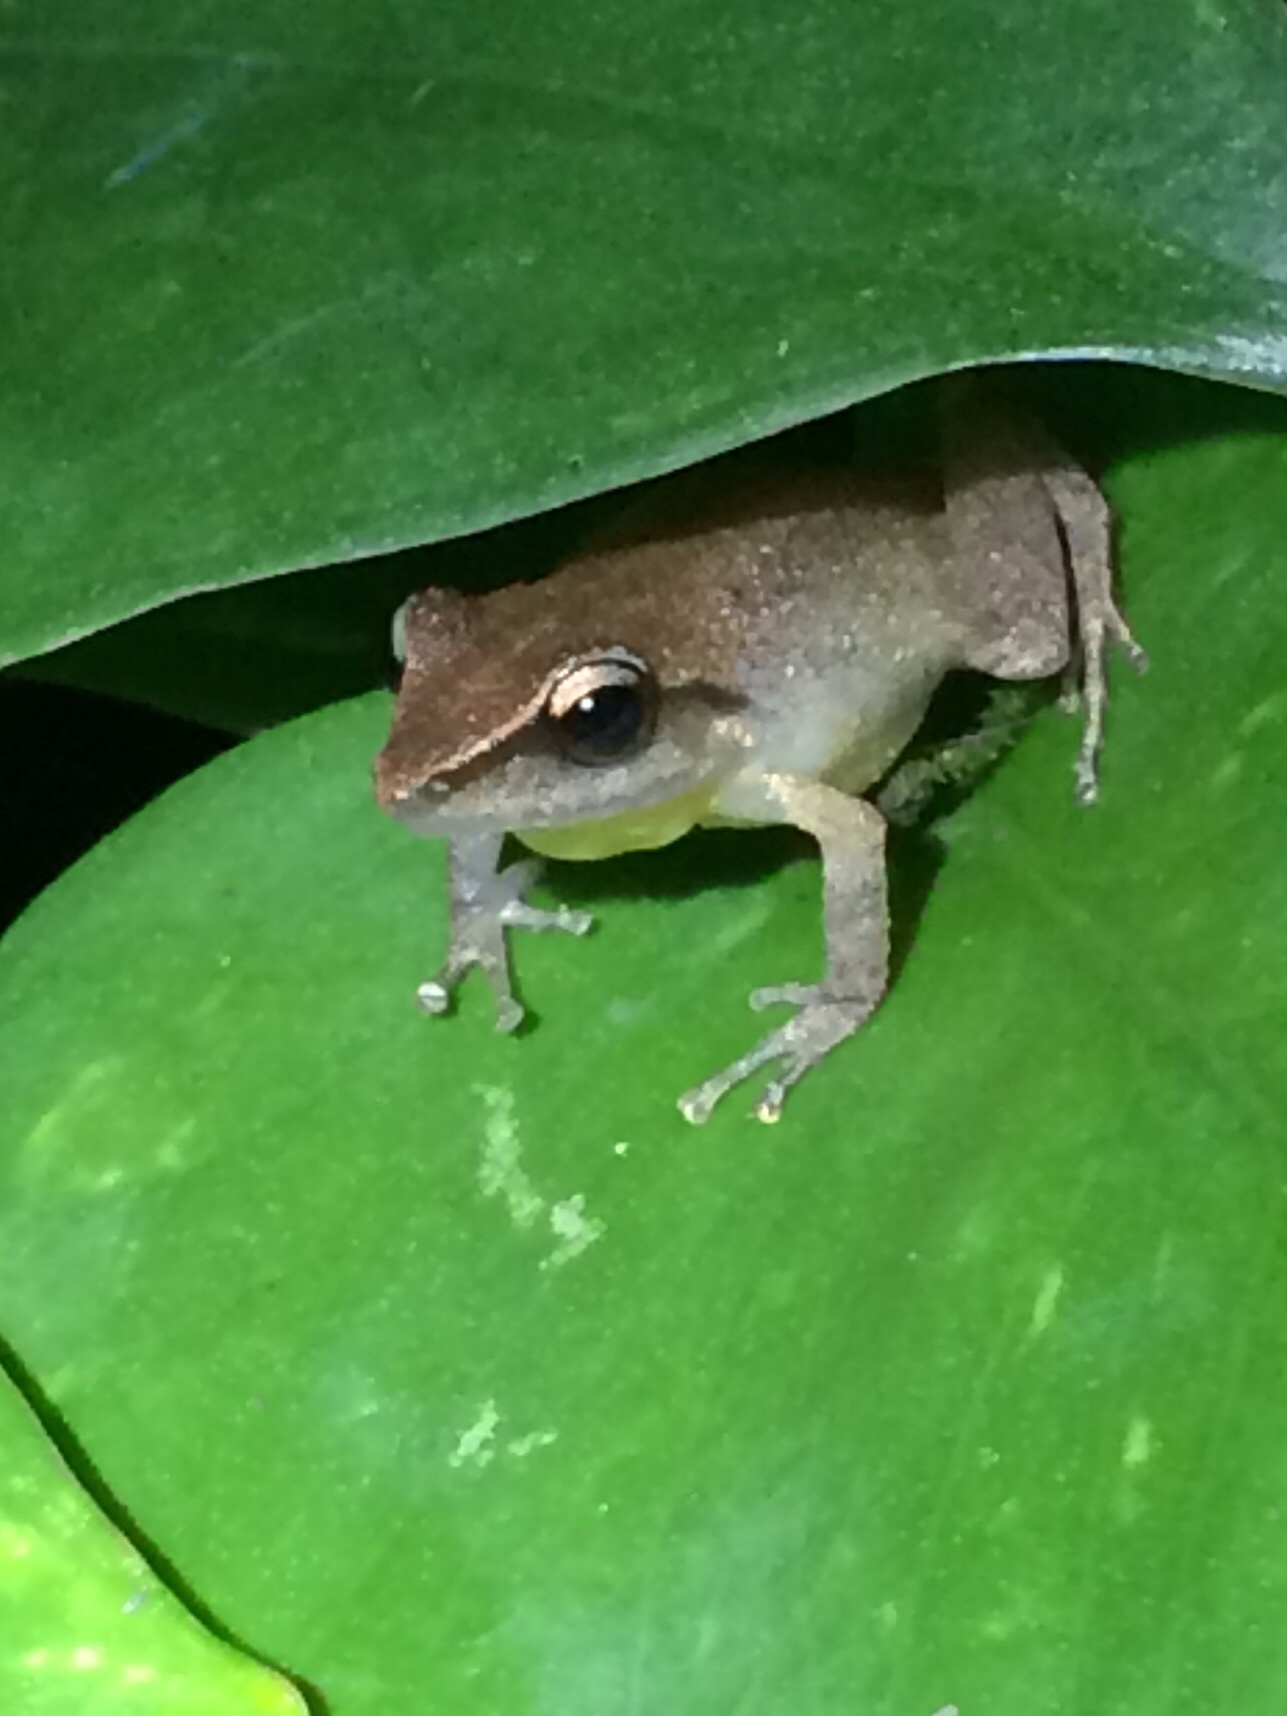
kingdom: Animalia
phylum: Chordata
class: Amphibia
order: Anura
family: Craugastoridae
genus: Pristimantis
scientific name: Pristimantis paulodutrai
